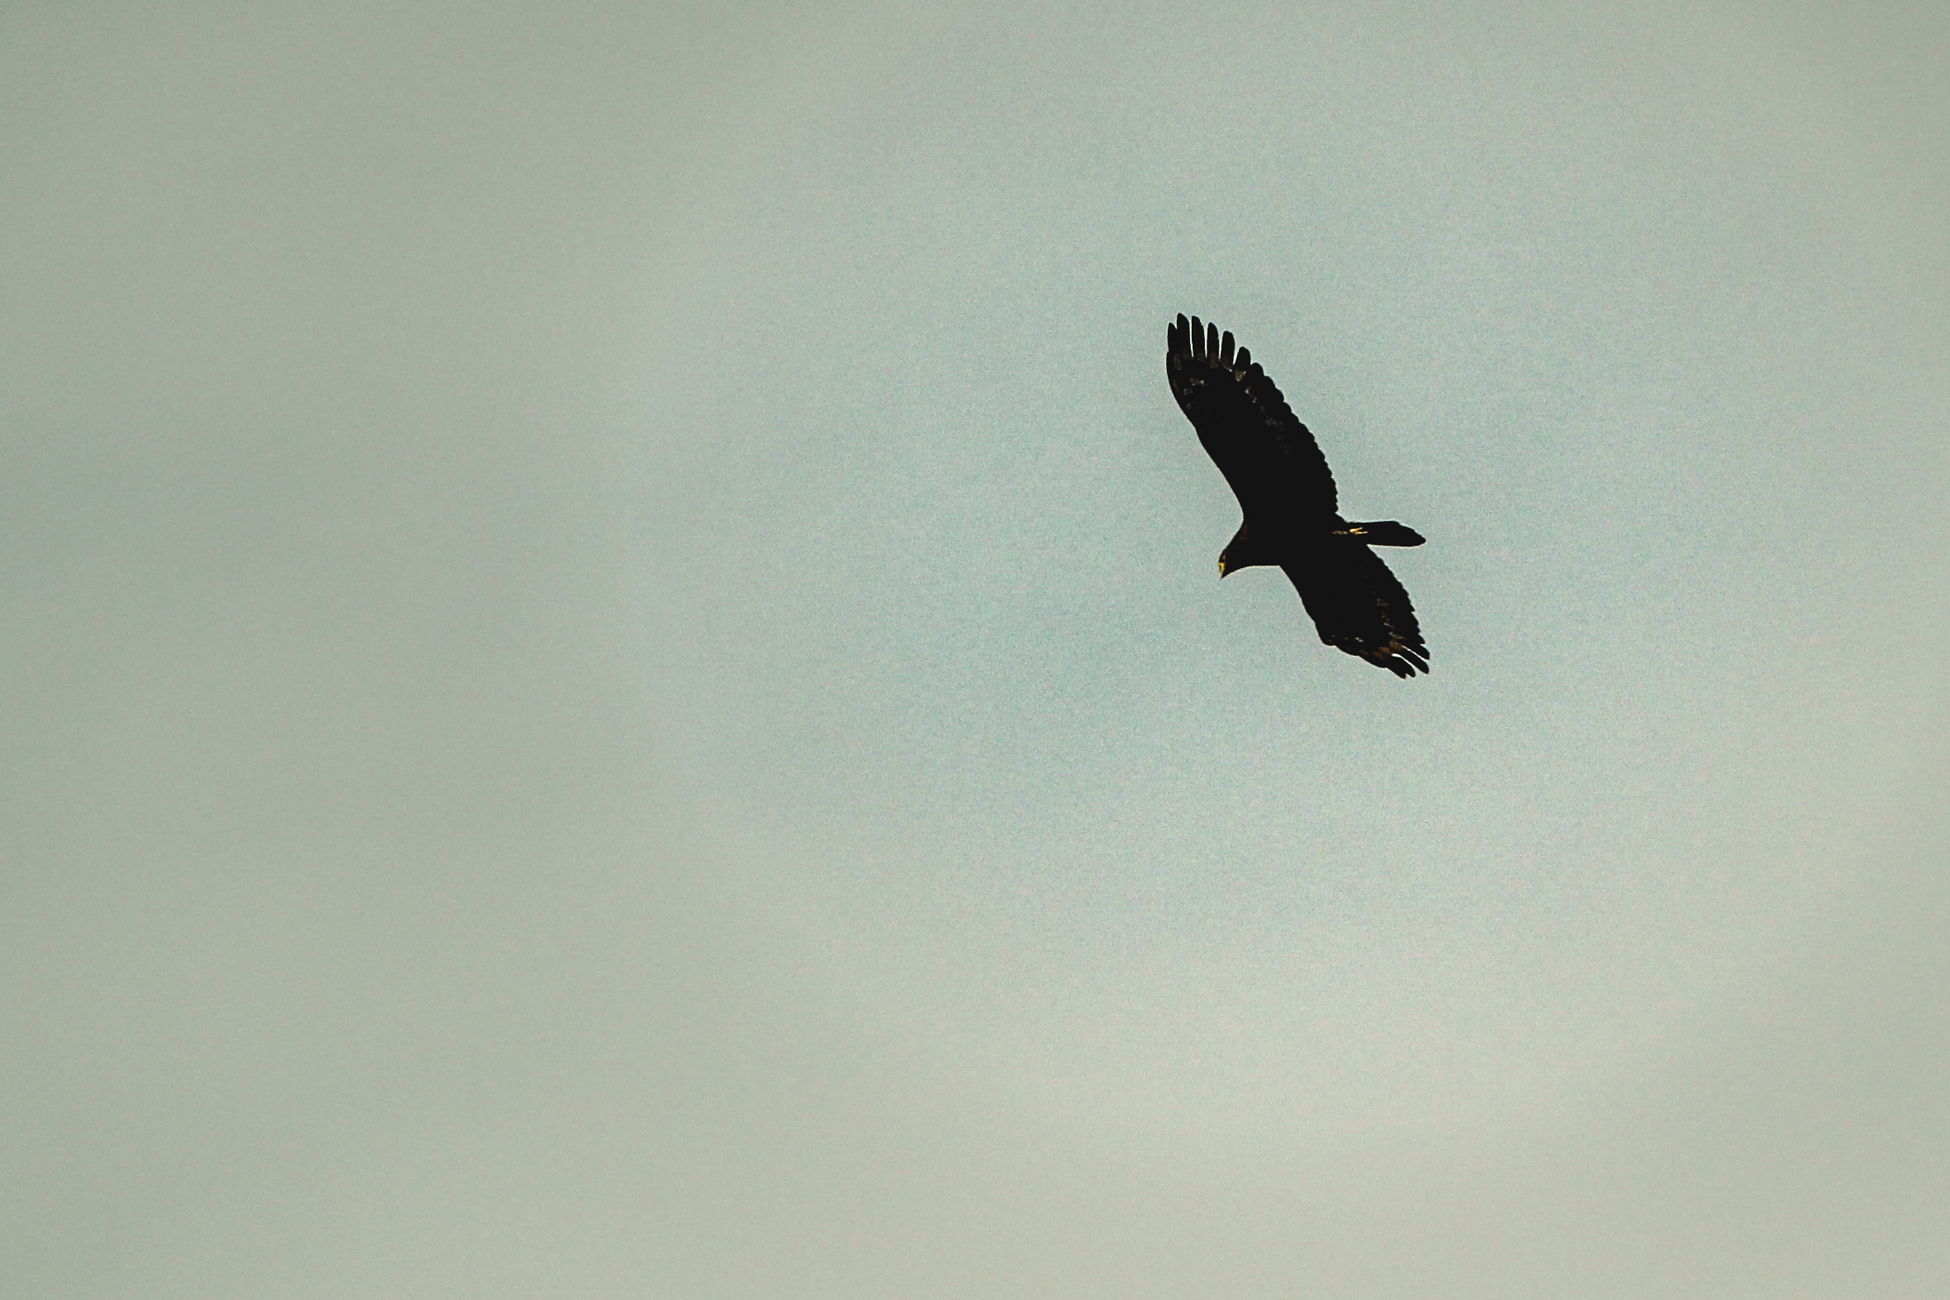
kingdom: Animalia
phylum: Chordata
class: Aves
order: Accipitriformes
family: Accipitridae
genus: Spilornis
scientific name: Spilornis cheela
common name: Crested serpent eagle
